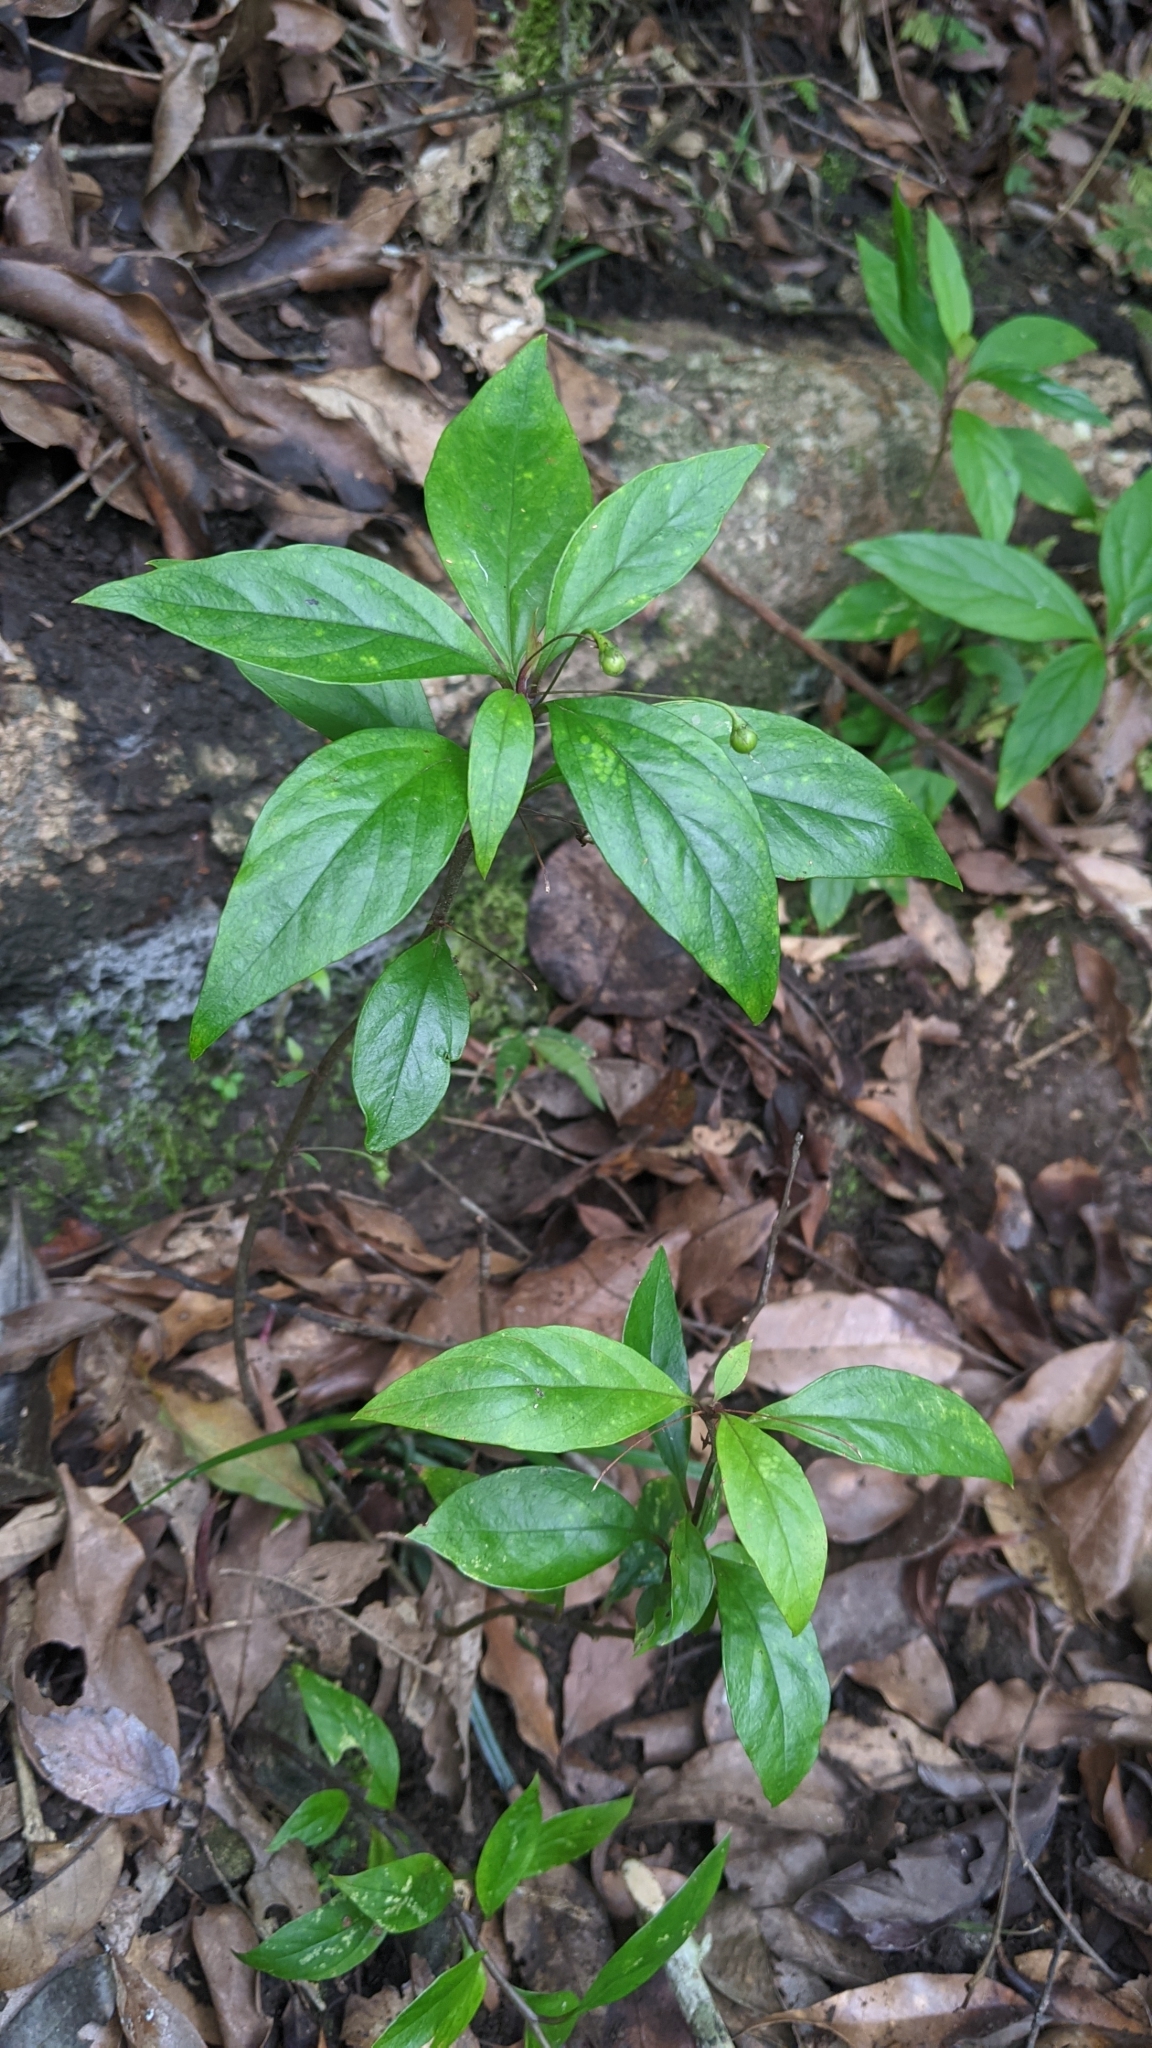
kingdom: Plantae
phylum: Tracheophyta
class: Magnoliopsida
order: Ericales
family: Primulaceae
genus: Lysimachia
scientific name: Lysimachia ardisioides
